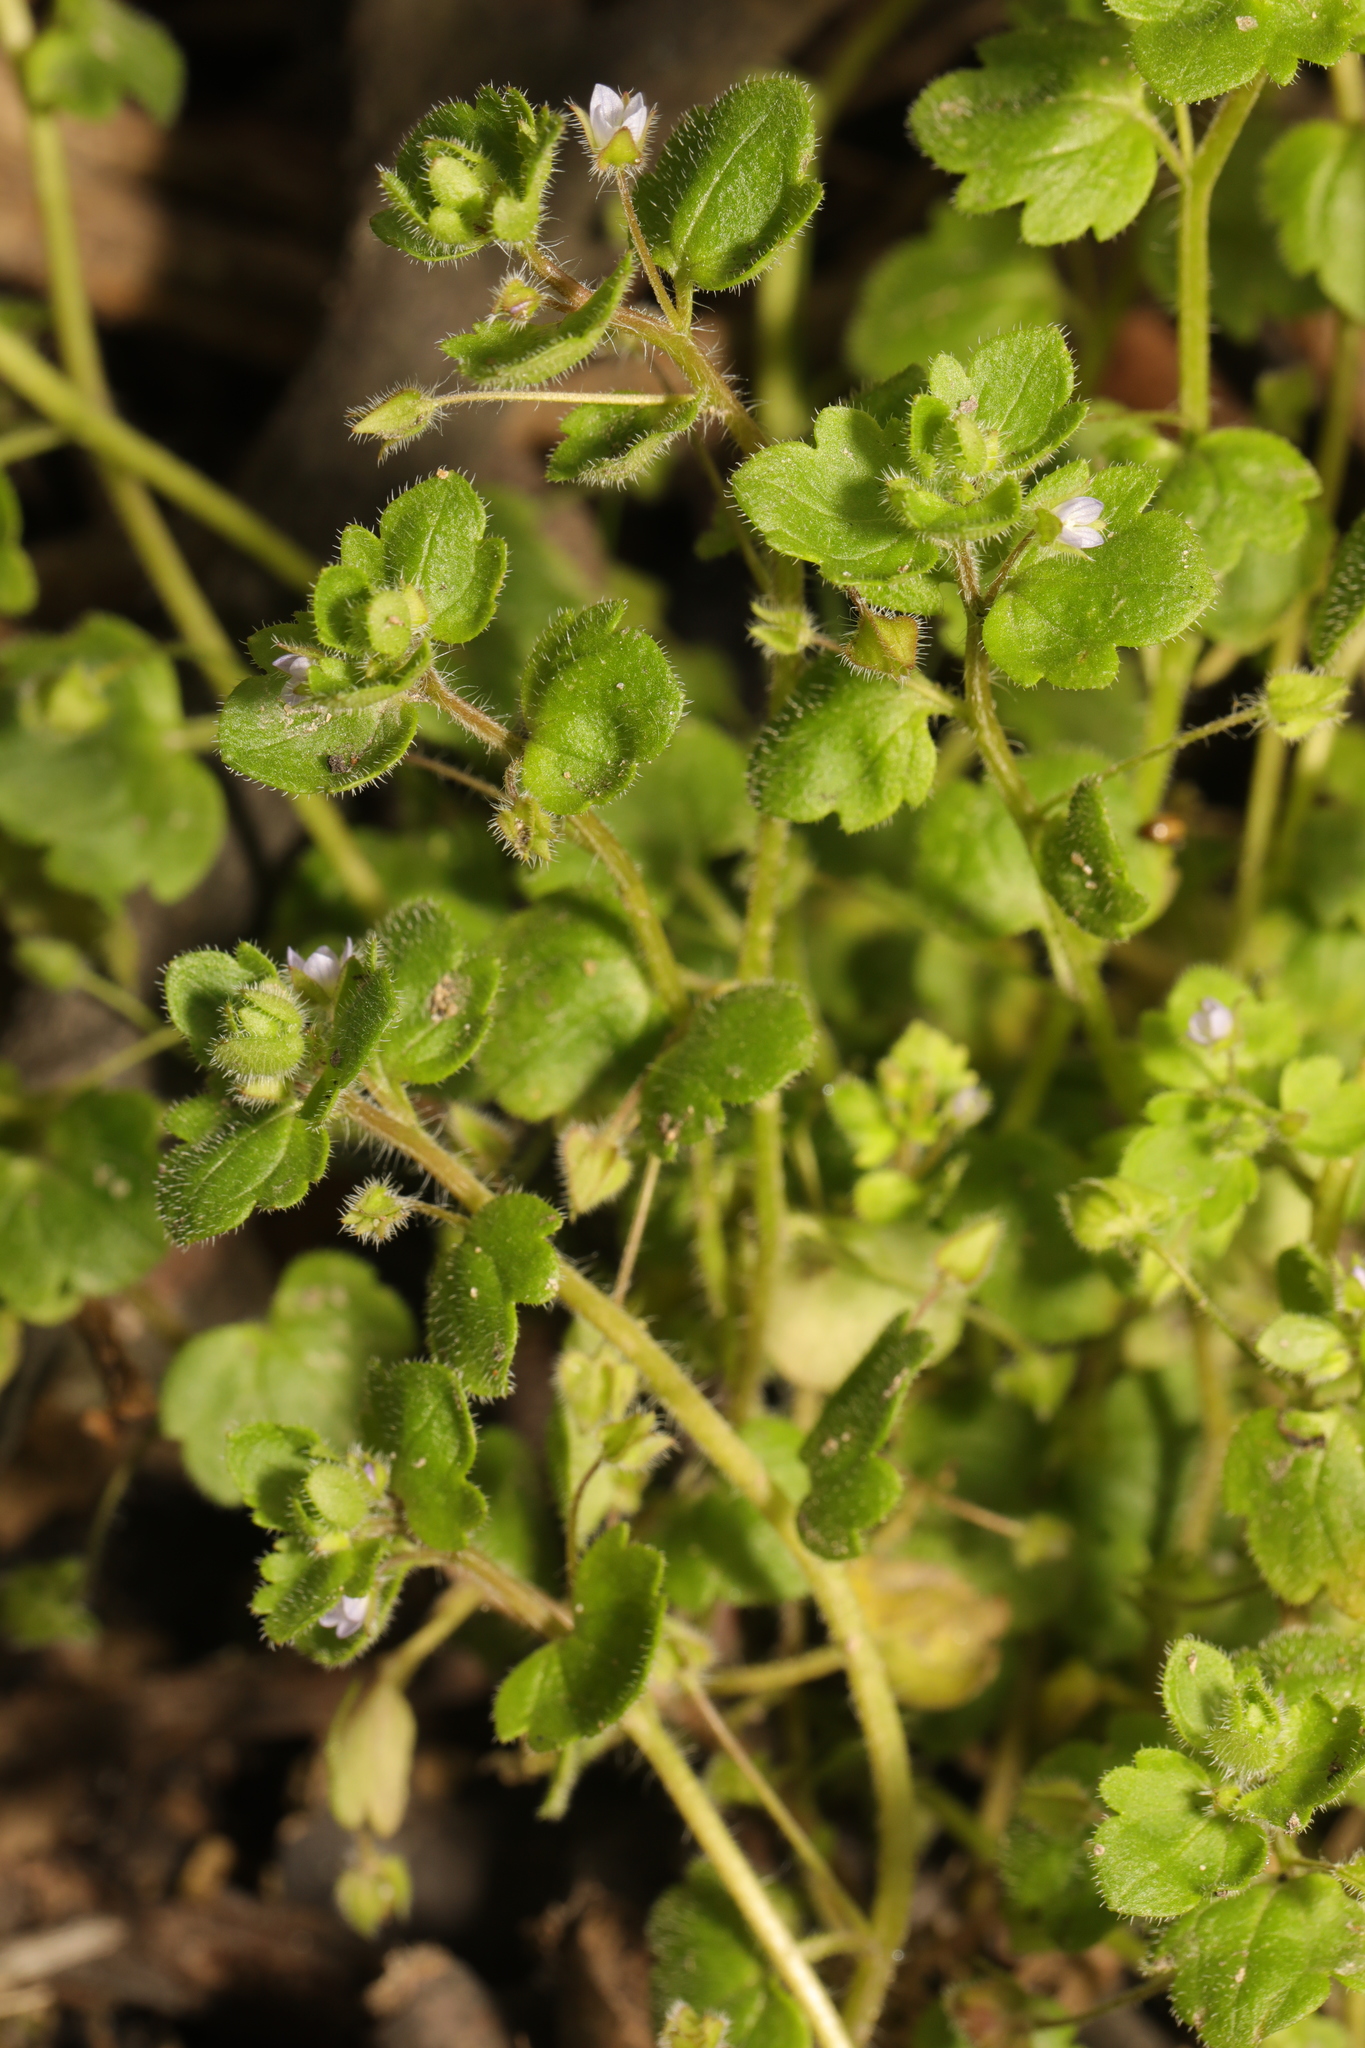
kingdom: Plantae
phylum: Tracheophyta
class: Magnoliopsida
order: Lamiales
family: Plantaginaceae
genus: Veronica
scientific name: Veronica sublobata
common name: False ivy-leaved speedwell
